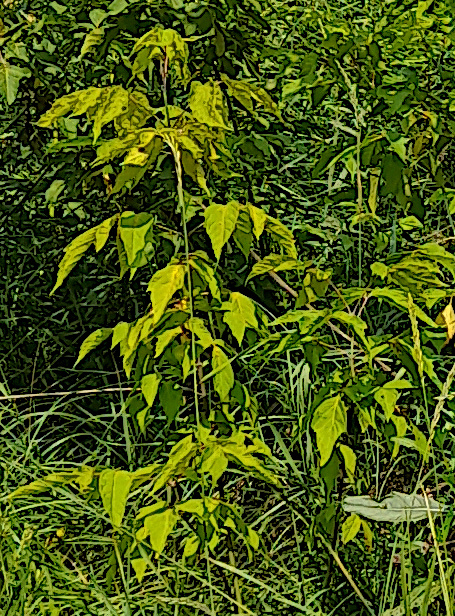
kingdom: Plantae
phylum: Tracheophyta
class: Magnoliopsida
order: Sapindales
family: Sapindaceae
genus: Acer
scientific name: Acer negundo
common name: Ashleaf maple
